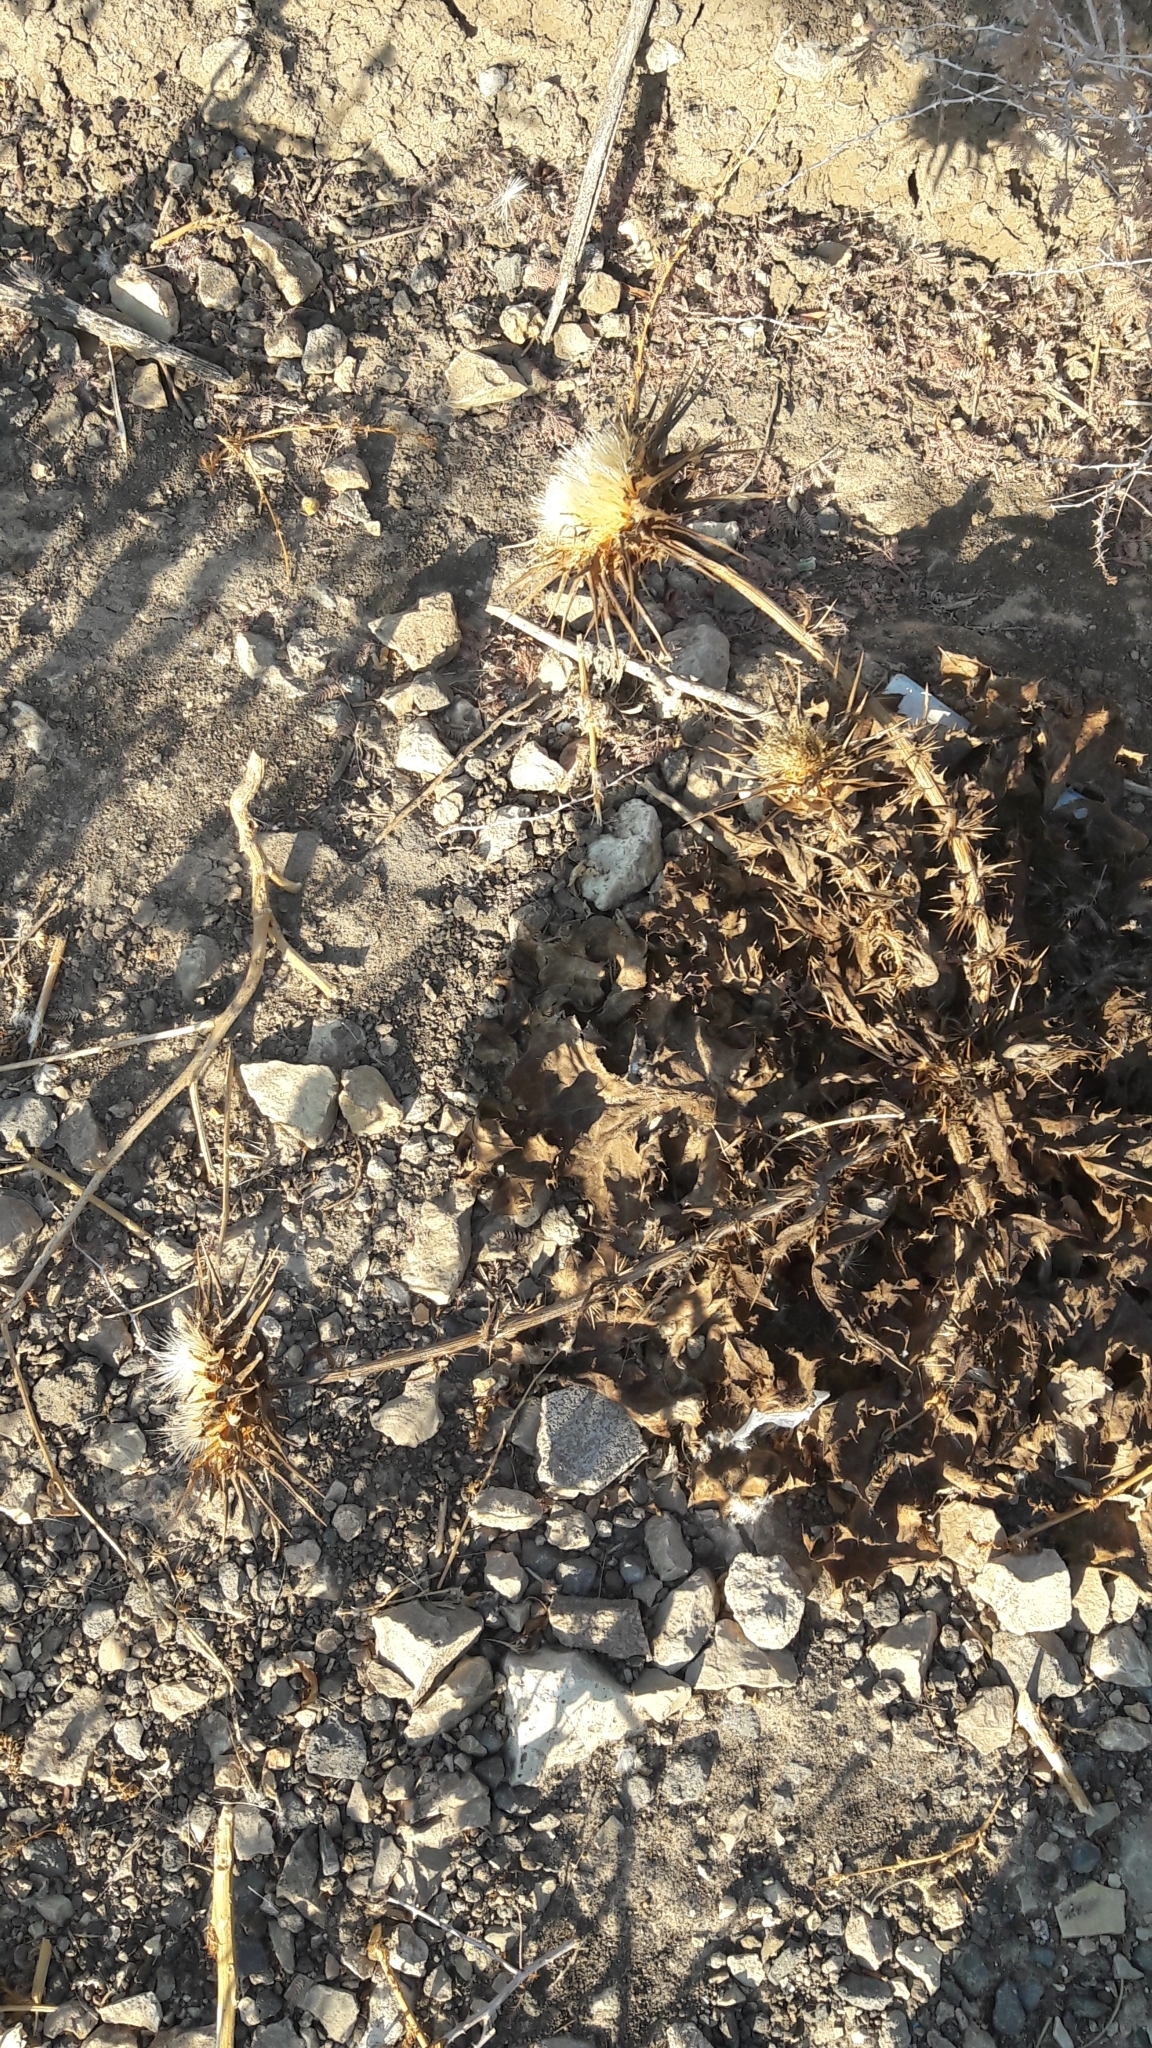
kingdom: Plantae
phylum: Tracheophyta
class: Magnoliopsida
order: Asterales
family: Asteraceae
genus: Silybum
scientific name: Silybum marianum
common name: Milk thistle
